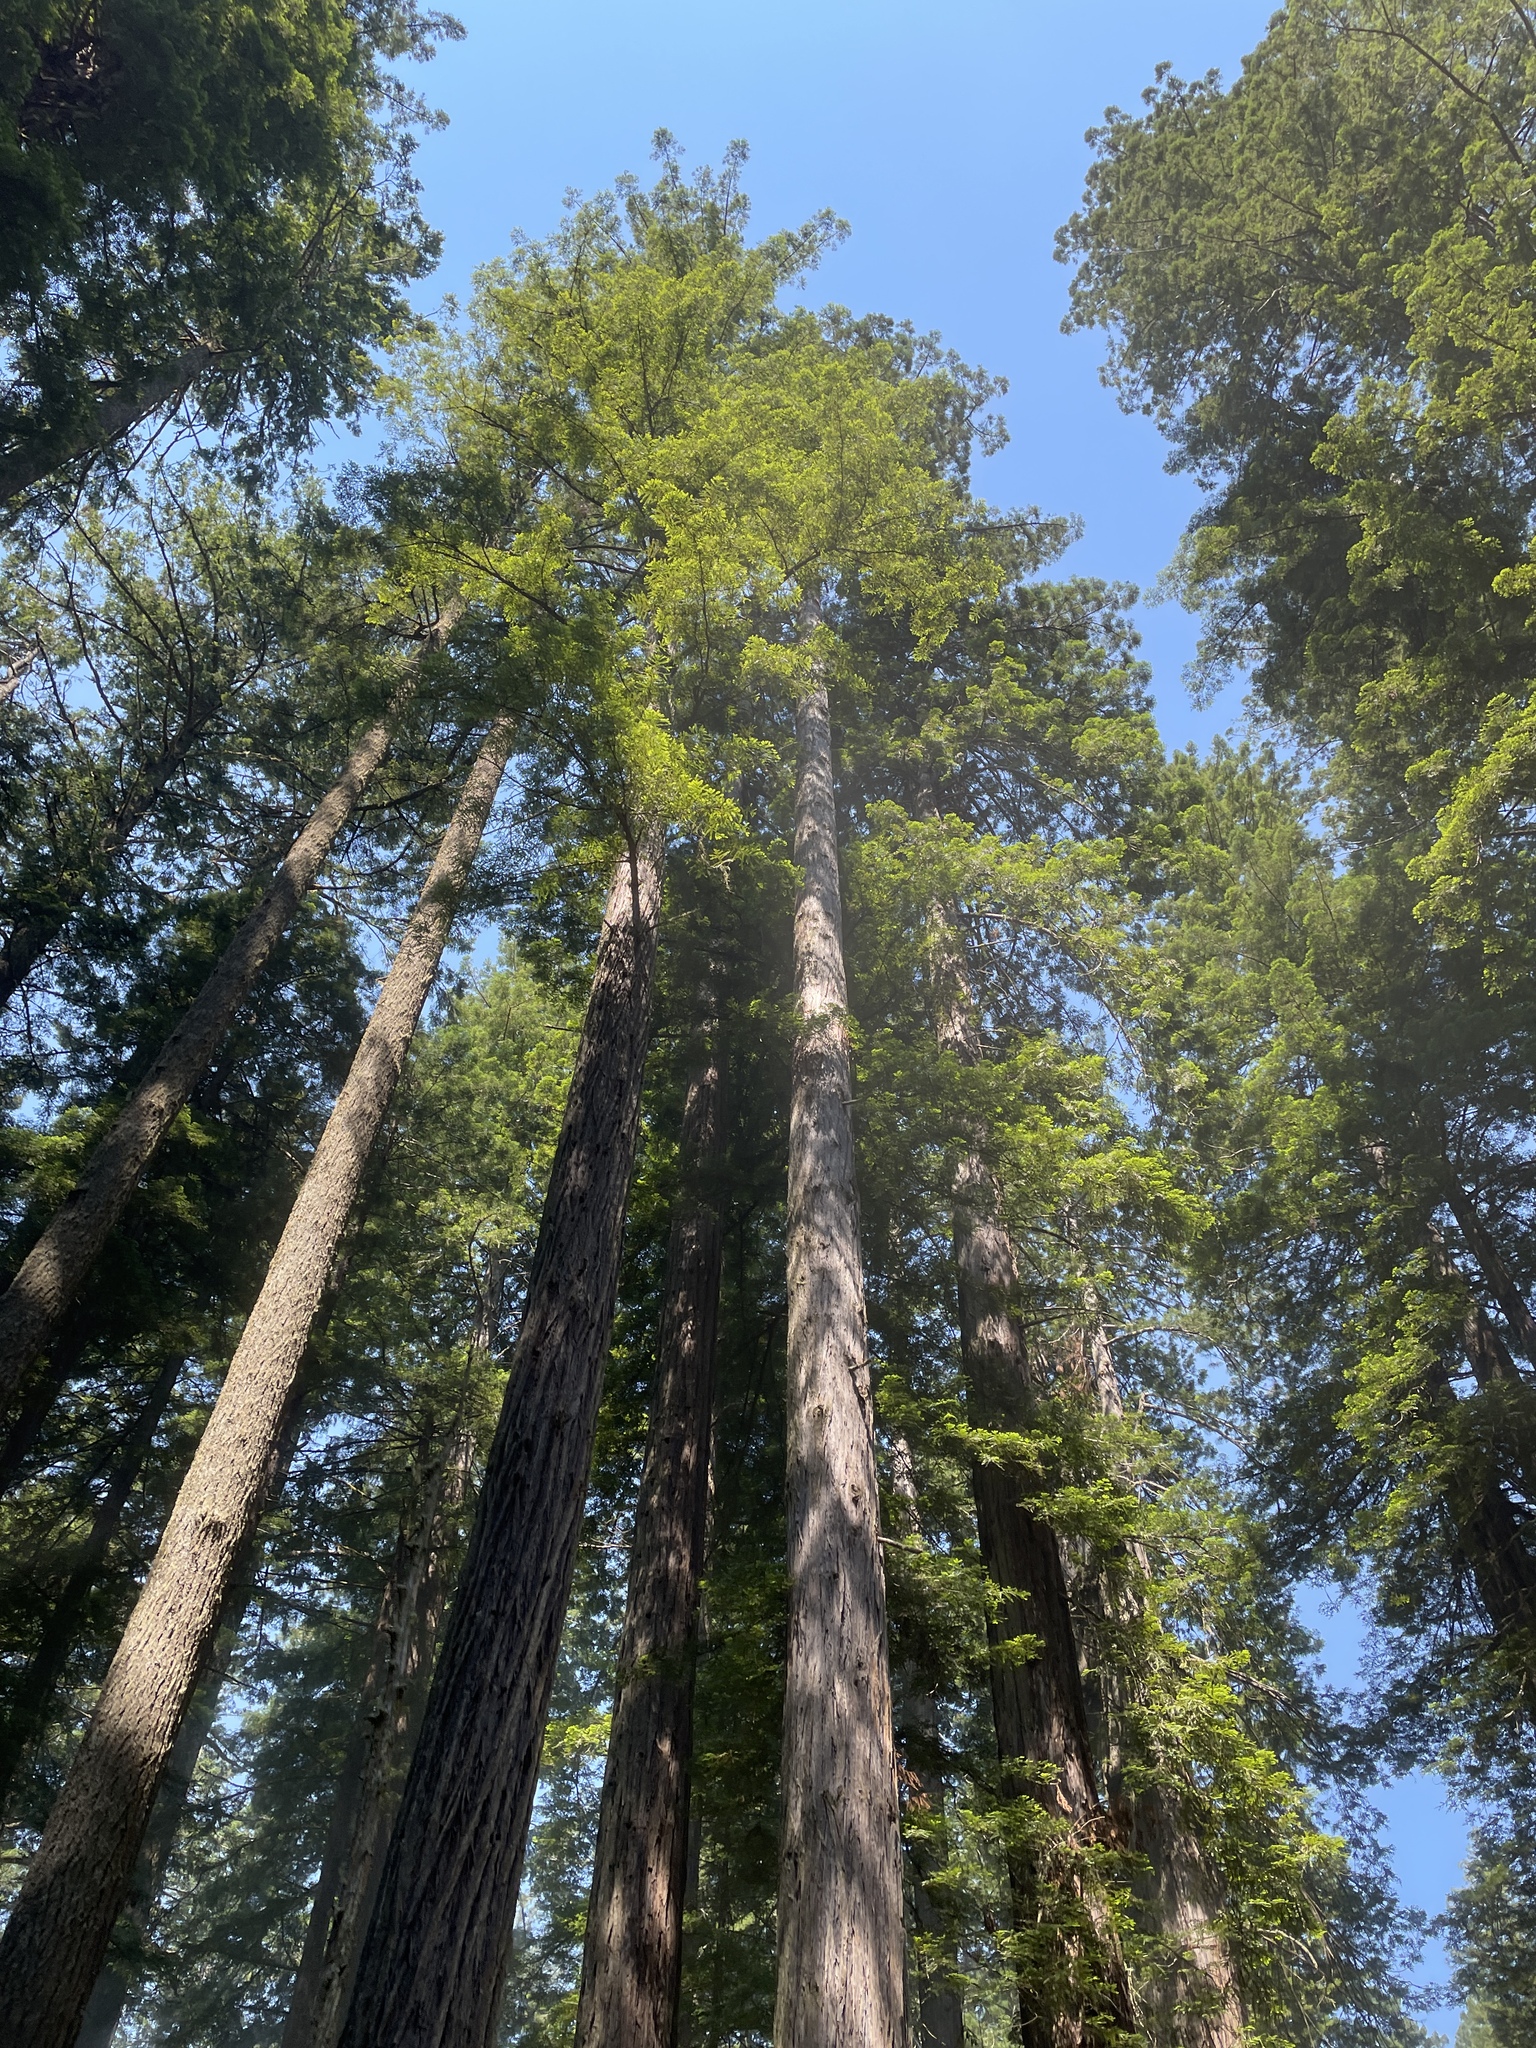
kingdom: Plantae
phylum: Tracheophyta
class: Pinopsida
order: Pinales
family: Cupressaceae
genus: Sequoia
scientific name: Sequoia sempervirens
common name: Coast redwood
